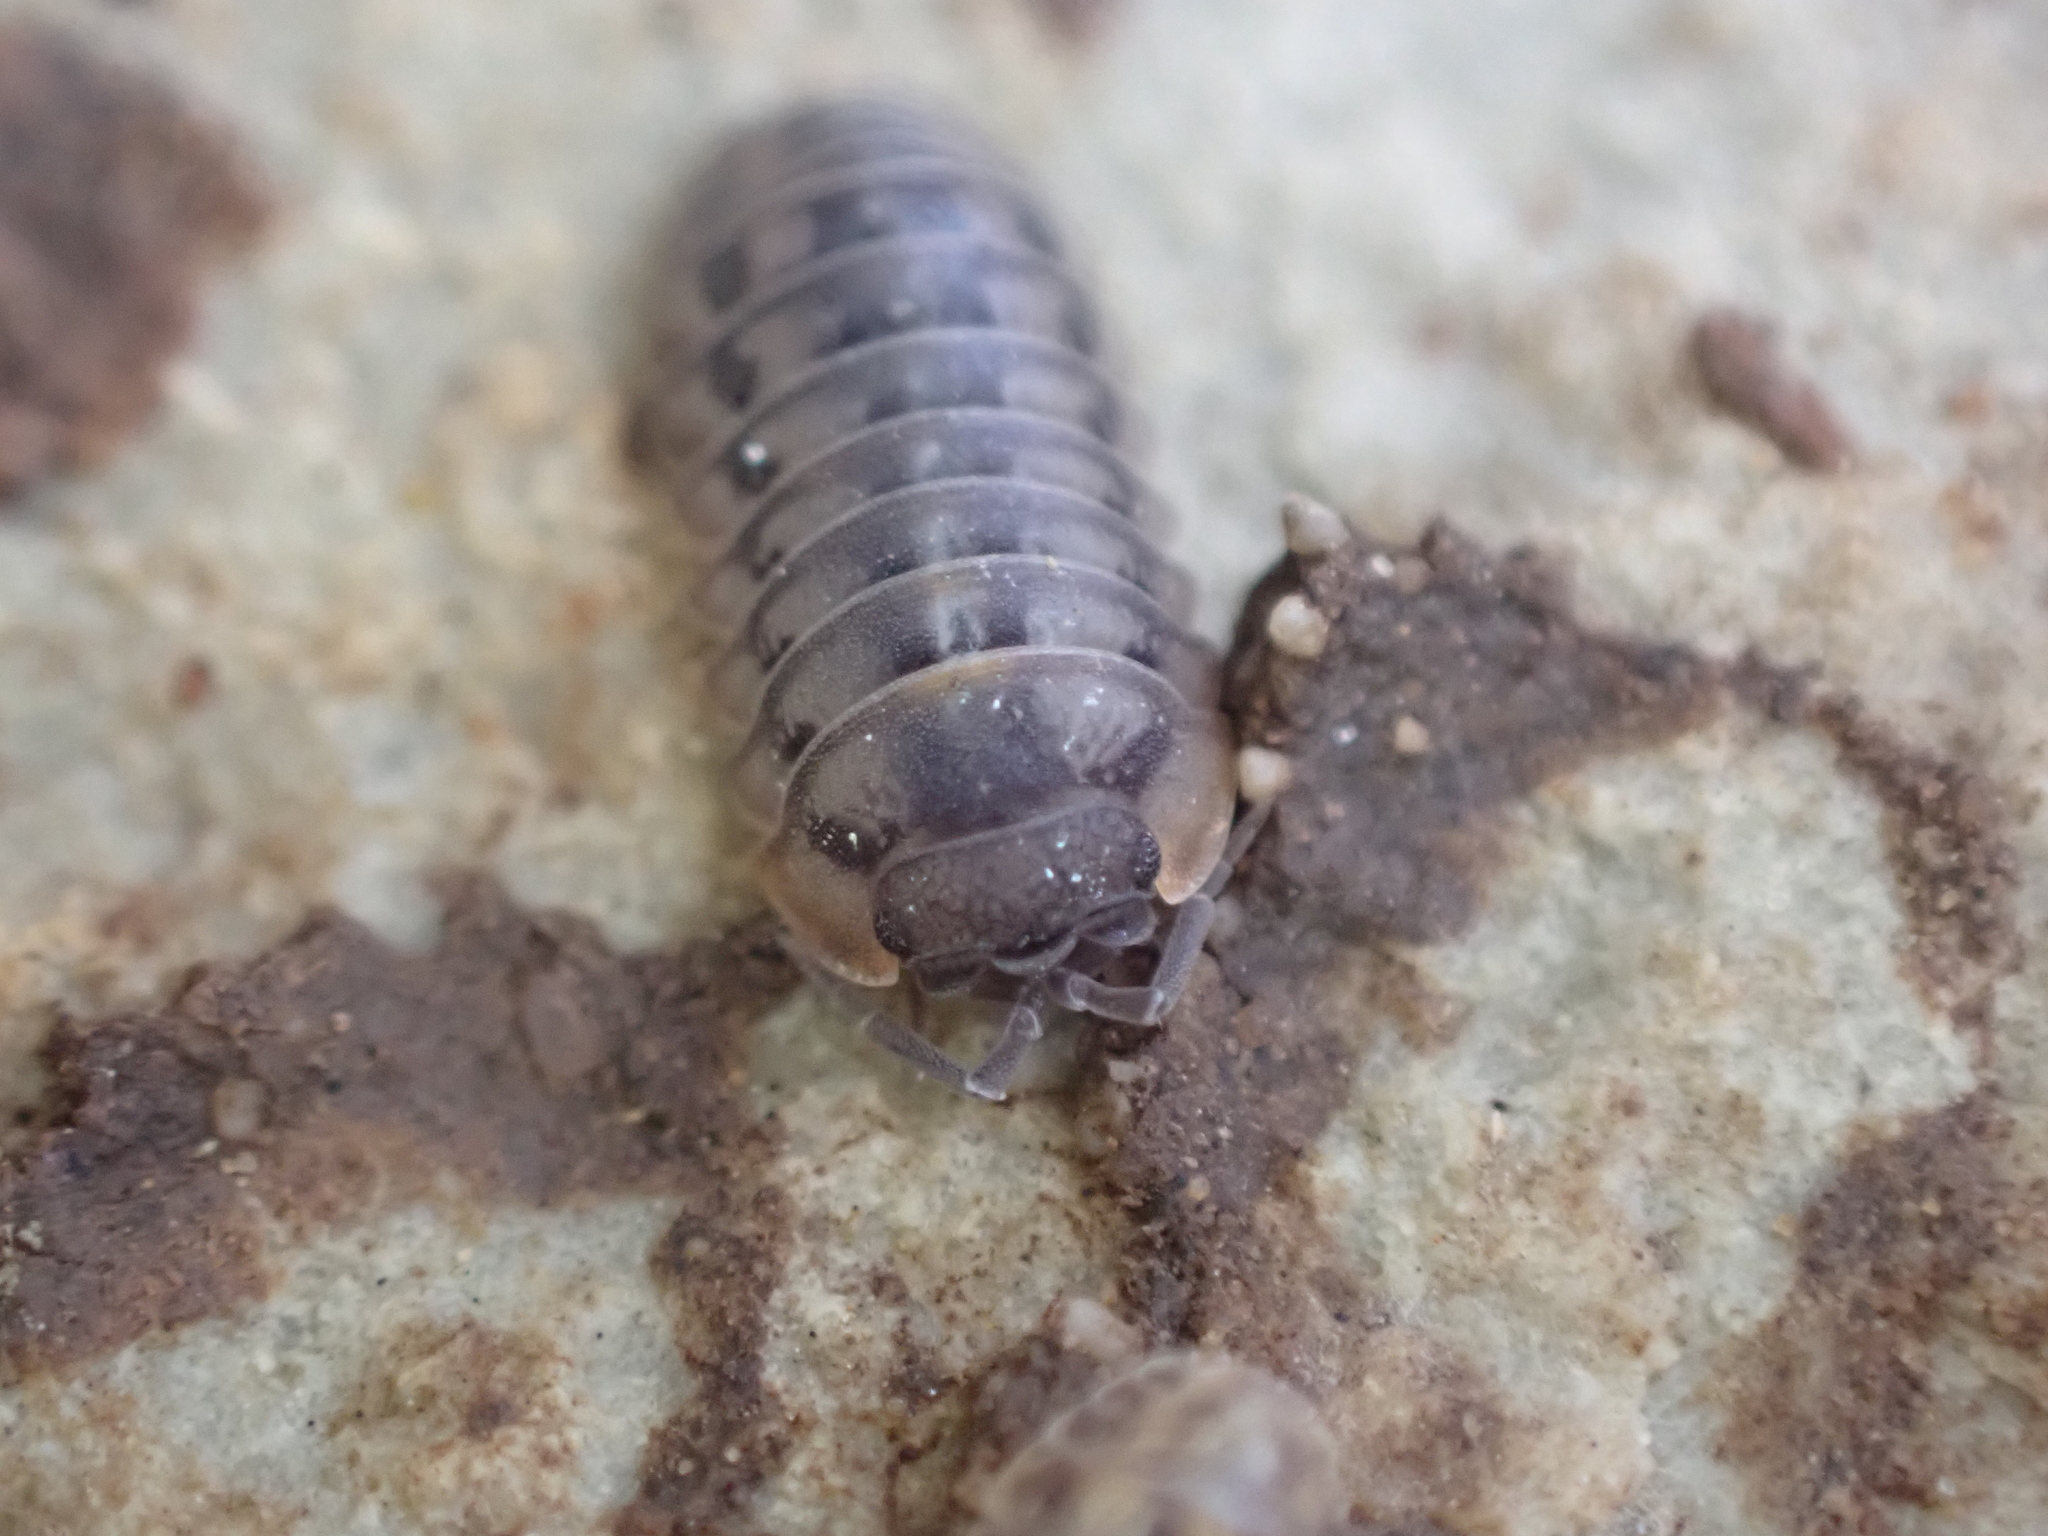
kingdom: Animalia
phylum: Arthropoda
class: Malacostraca
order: Isopoda
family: Armadillidiidae
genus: Armadillidium
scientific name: Armadillidium nasatum
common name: Isopod
